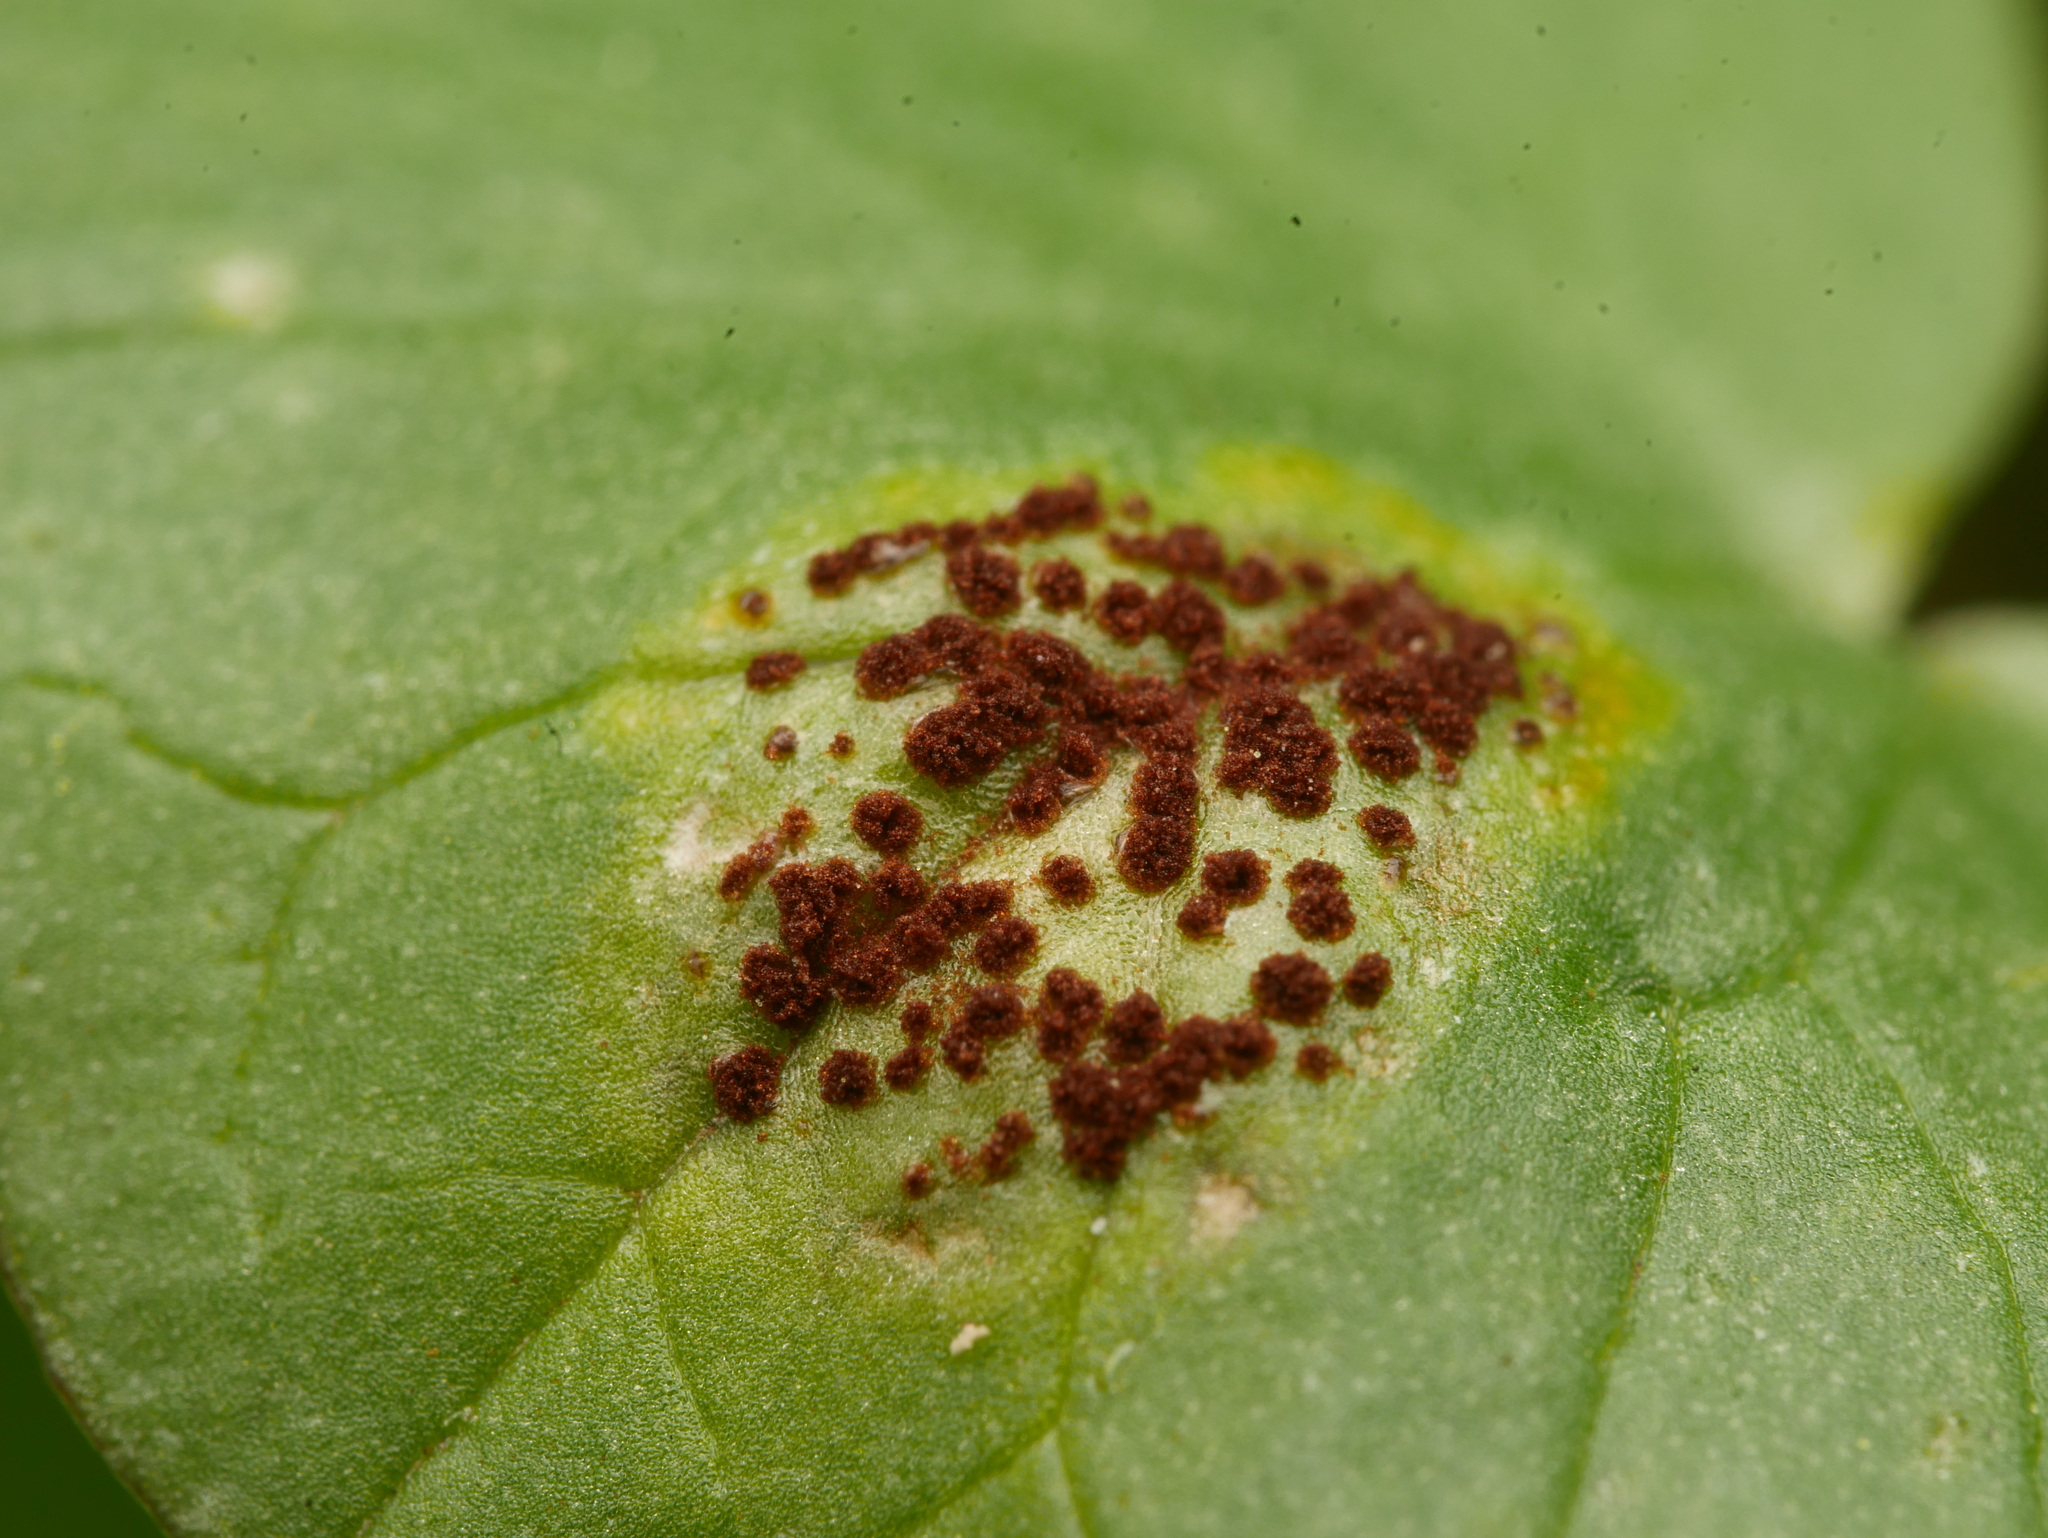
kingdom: Fungi
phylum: Basidiomycota
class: Pucciniomycetes
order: Pucciniales
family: Pucciniaceae
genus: Uromyces
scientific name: Uromyces ficariae
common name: Bitter chocolate rust
